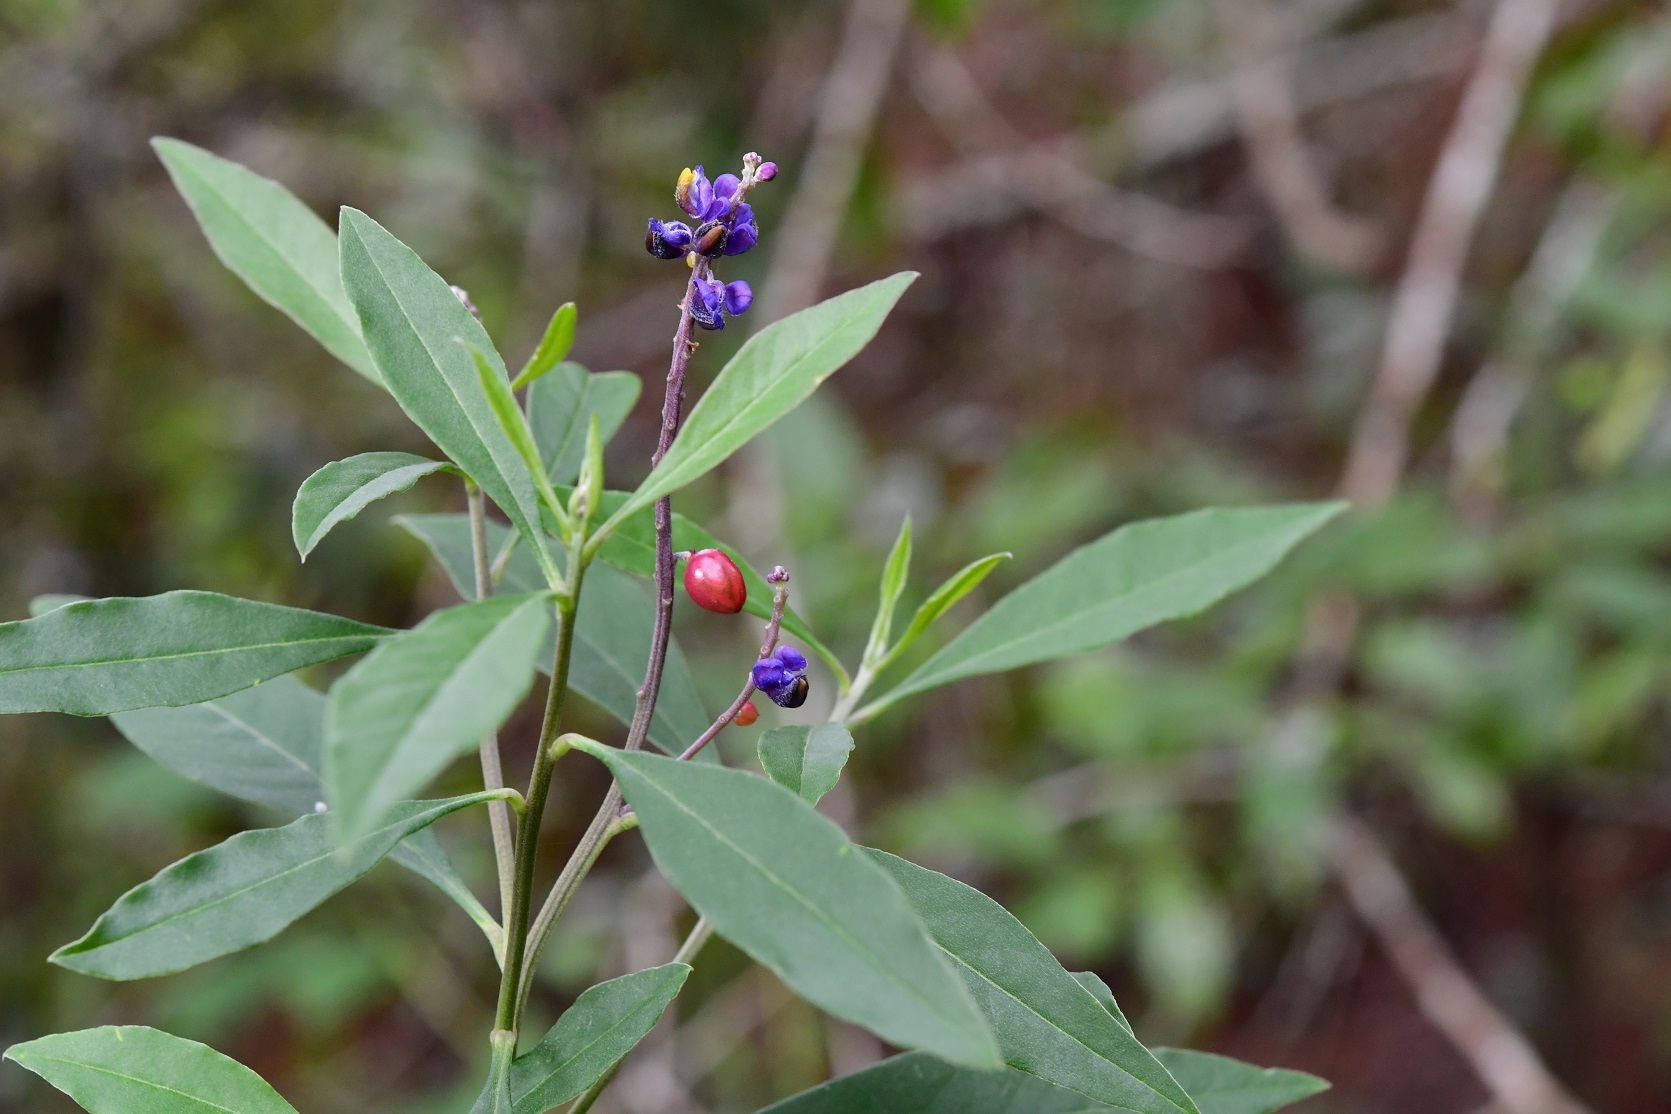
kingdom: Plantae
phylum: Tracheophyta
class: Magnoliopsida
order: Fabales
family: Polygalaceae
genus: Monnina
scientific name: Monnina xalapensis
